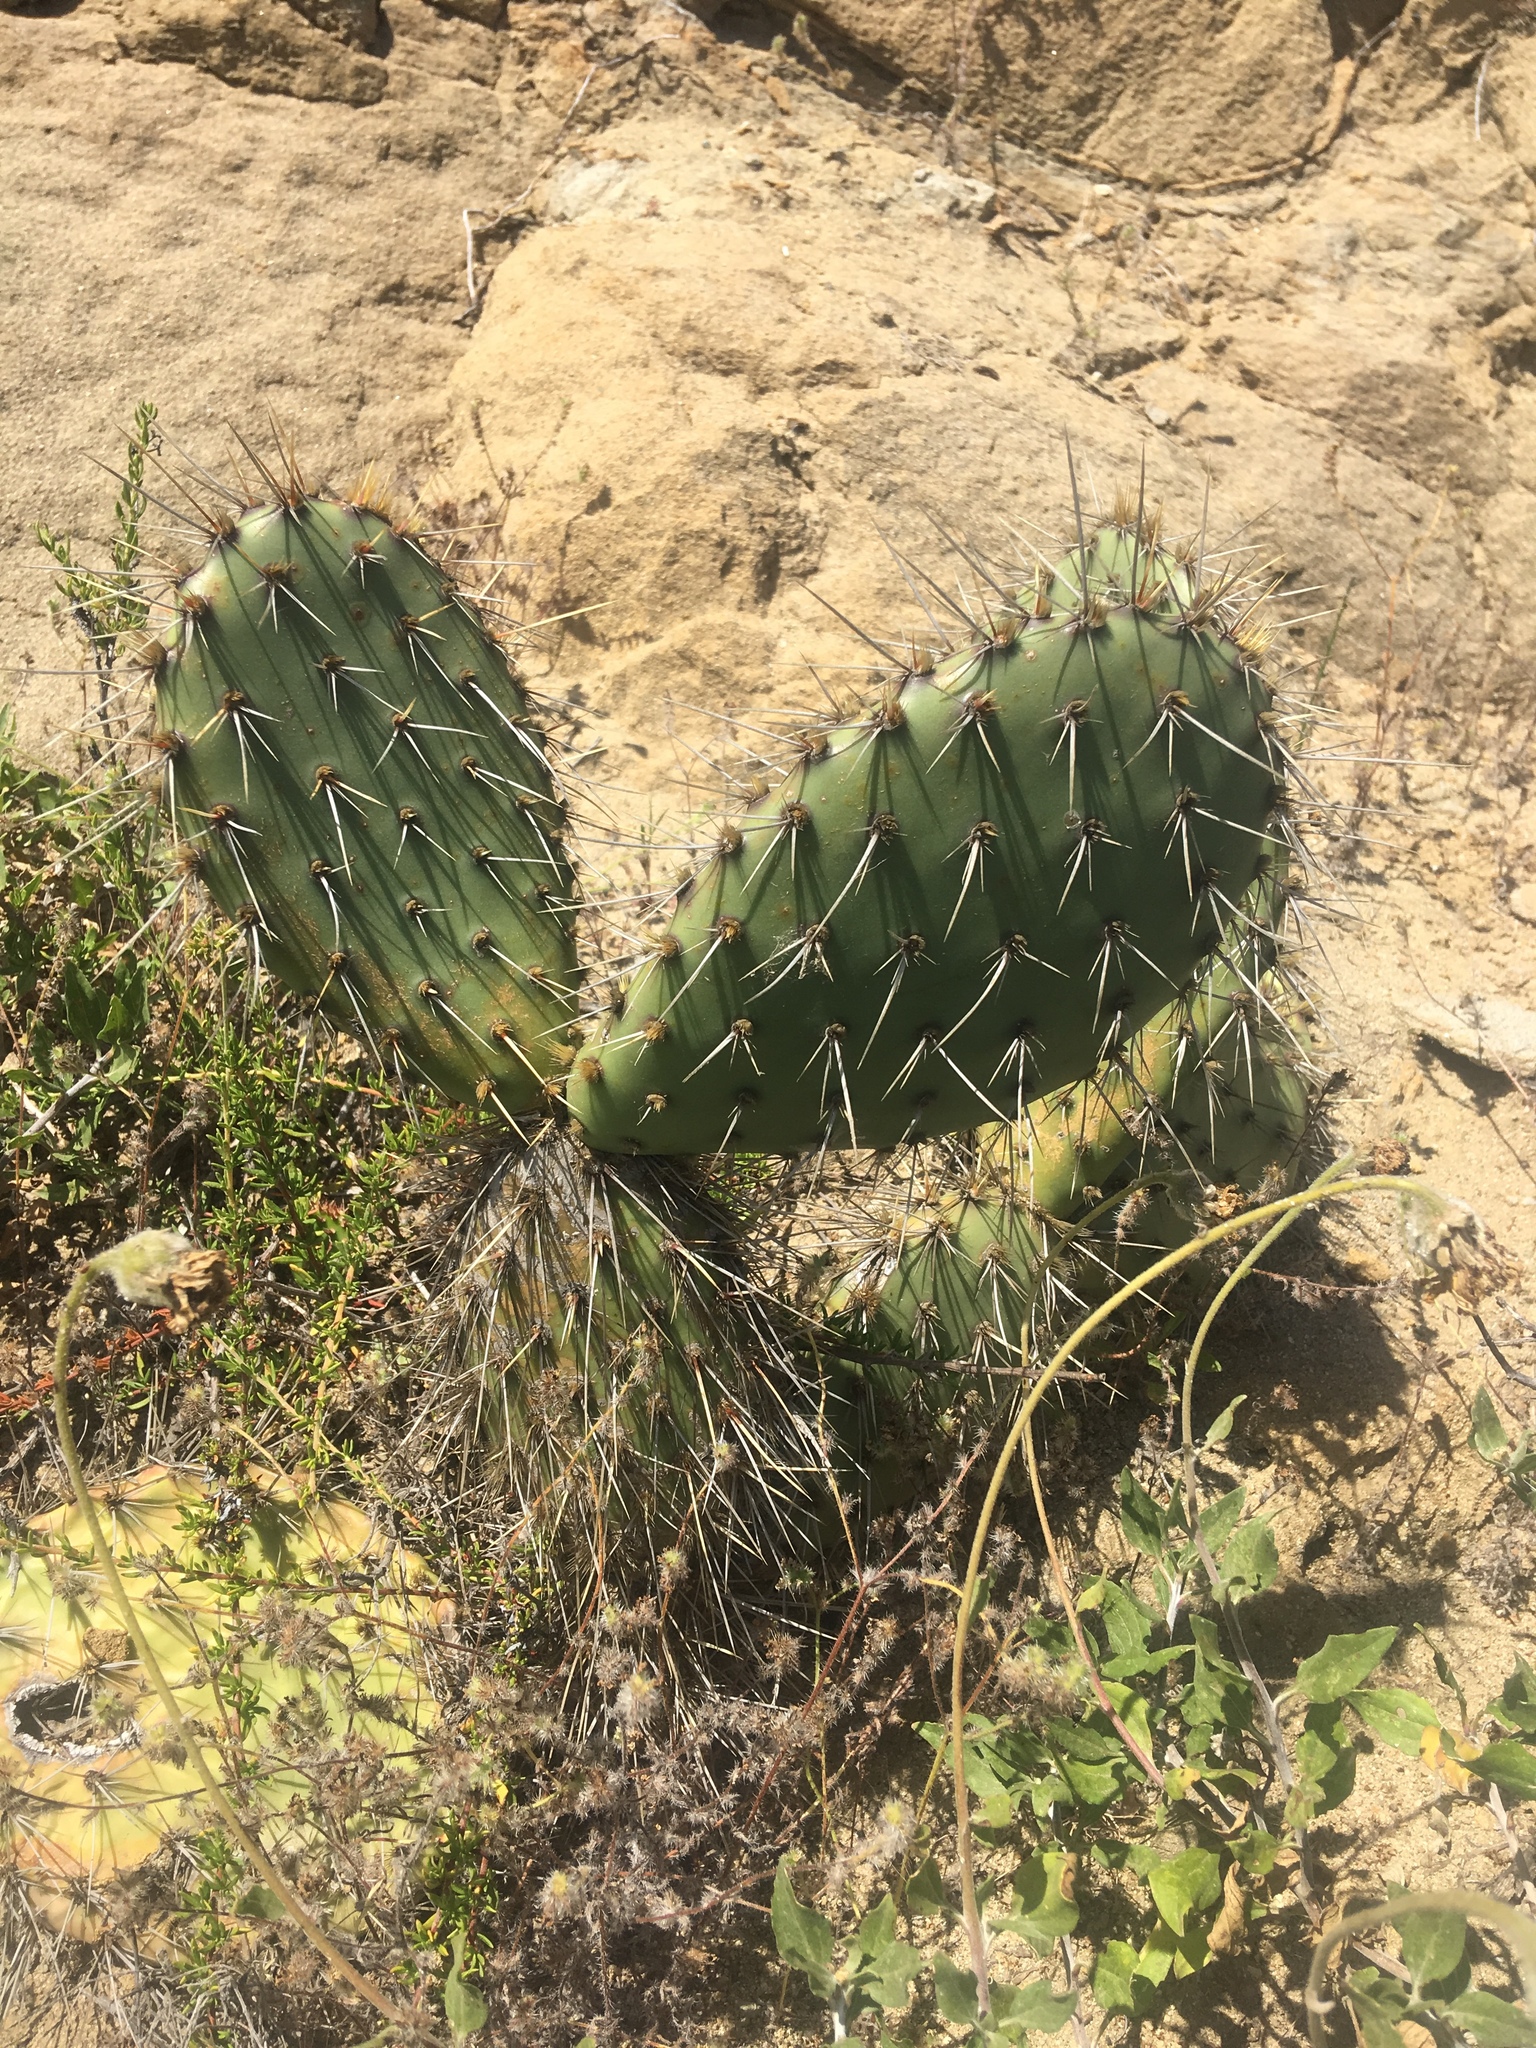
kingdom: Plantae
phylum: Tracheophyta
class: Magnoliopsida
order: Caryophyllales
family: Cactaceae
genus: Opuntia
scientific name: Opuntia littoralis
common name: Coastal prickly-pear
